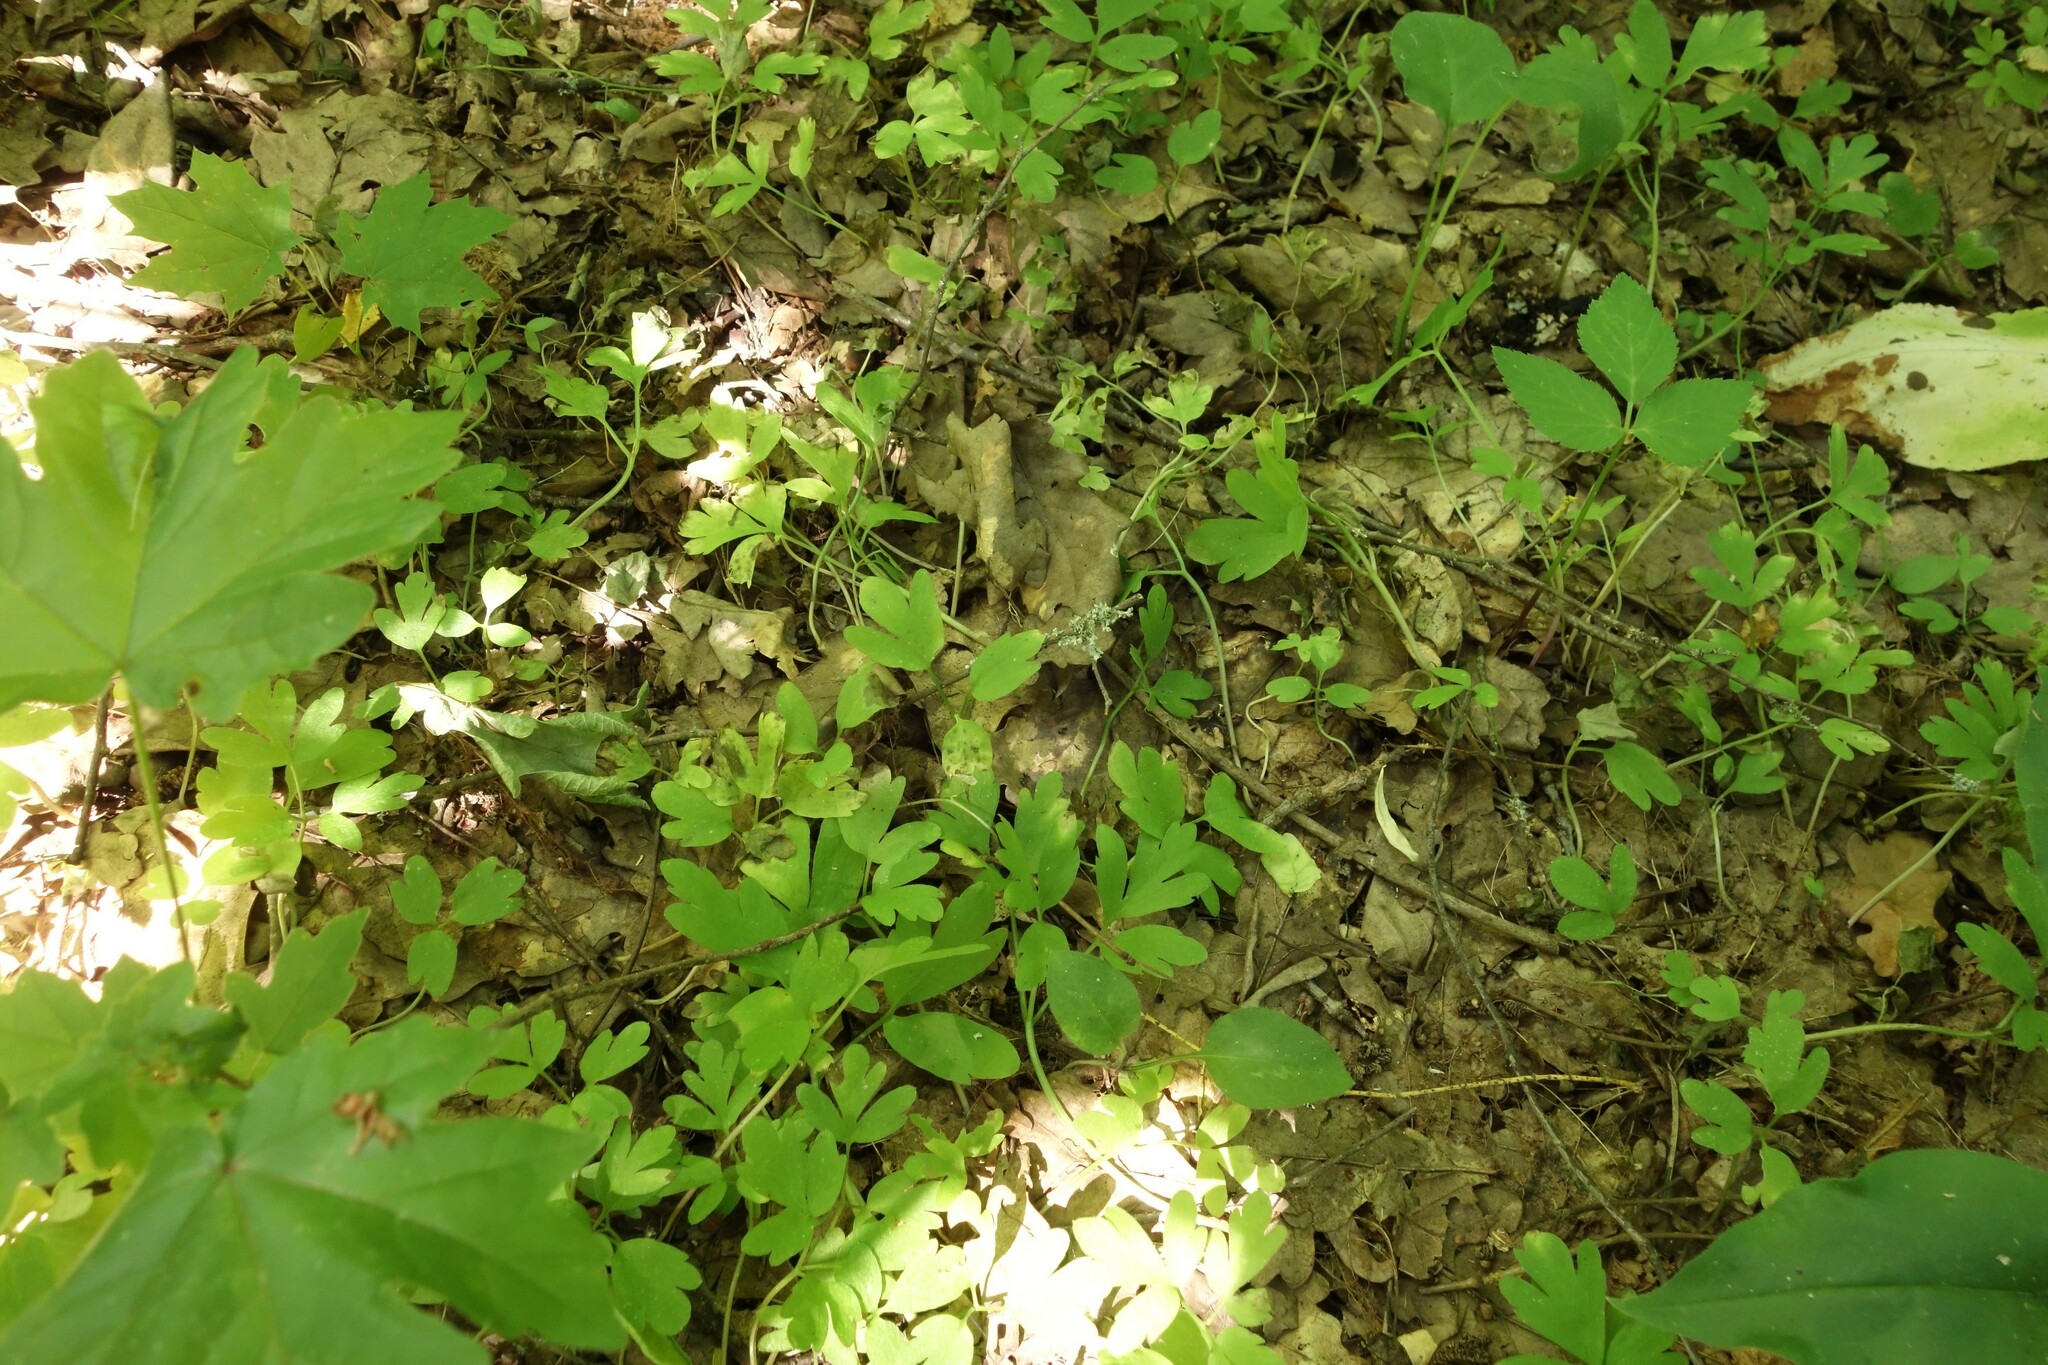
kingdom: Plantae
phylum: Tracheophyta
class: Magnoliopsida
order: Dipsacales
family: Viburnaceae
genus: Adoxa
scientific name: Adoxa moschatellina
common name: Moschatel
